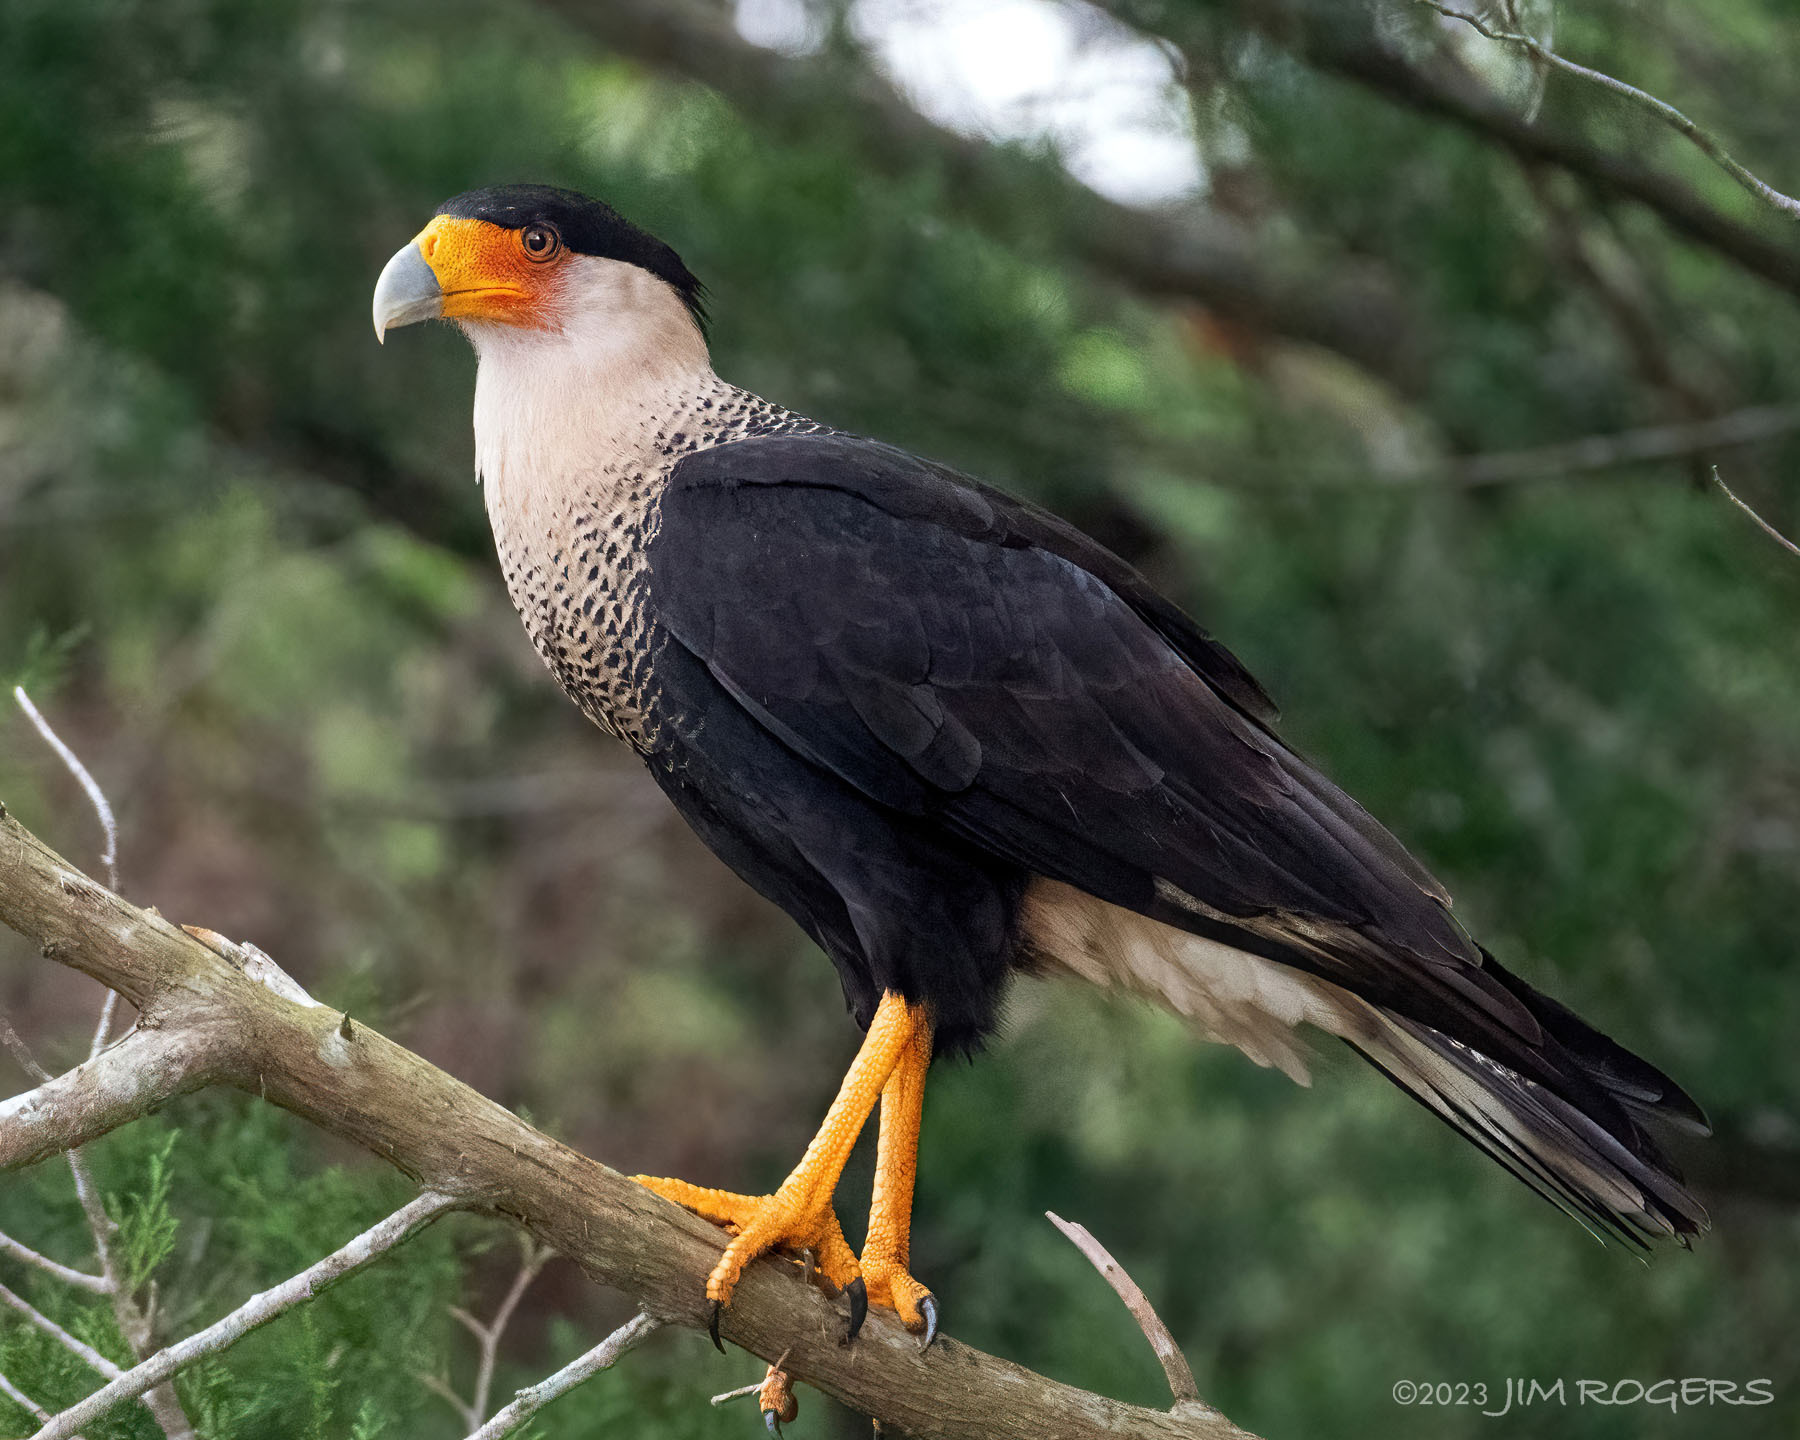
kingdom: Animalia
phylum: Chordata
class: Aves
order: Falconiformes
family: Falconidae
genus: Caracara
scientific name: Caracara plancus
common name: Southern caracara
